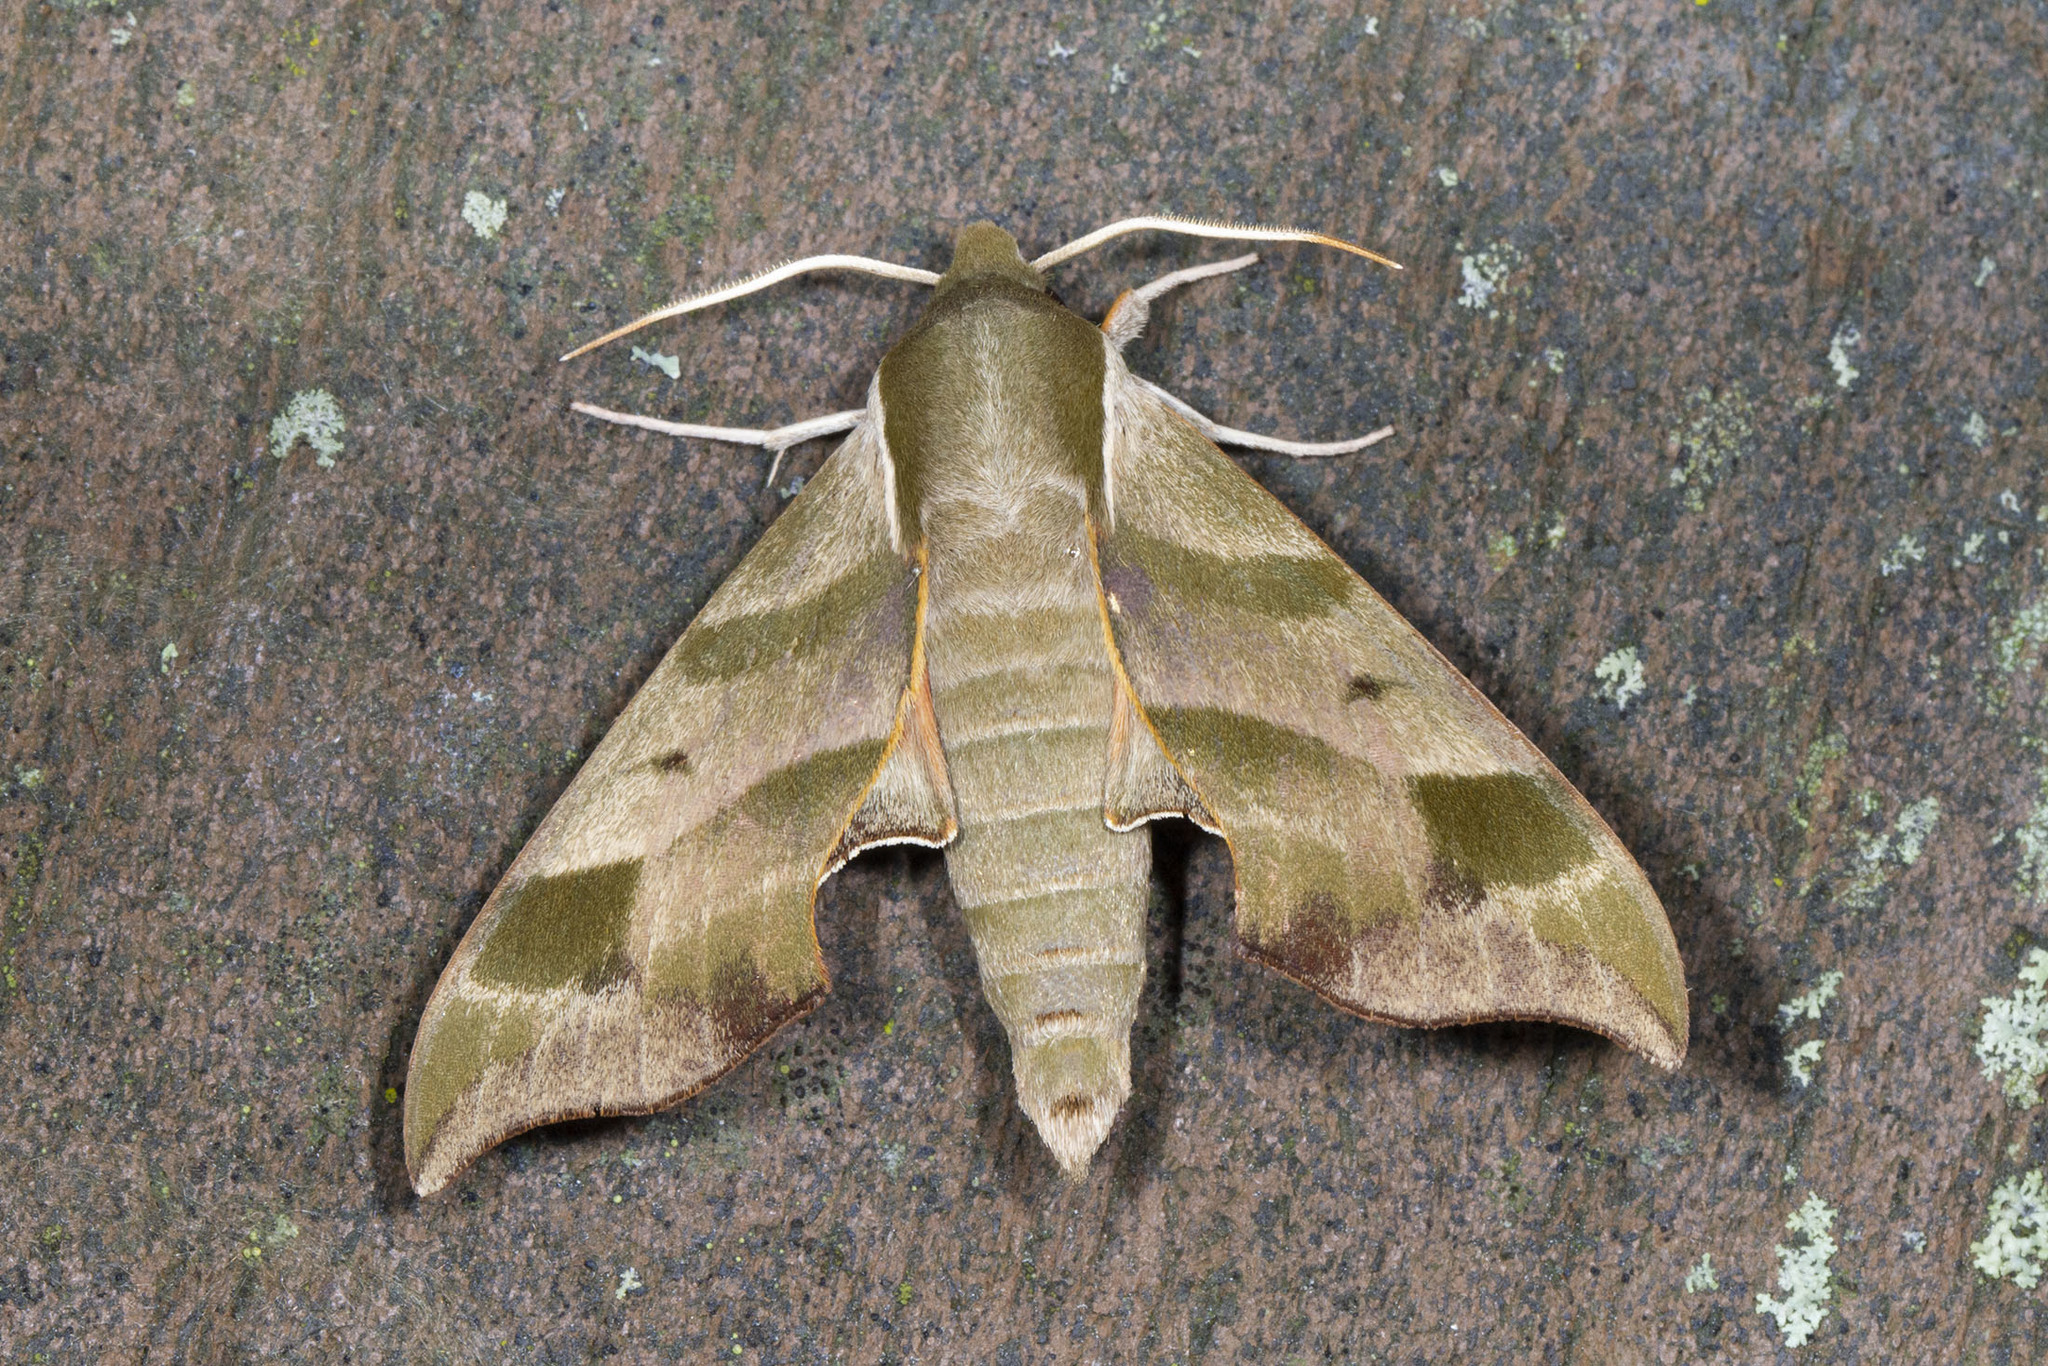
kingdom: Animalia
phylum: Arthropoda
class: Insecta
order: Lepidoptera
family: Sphingidae
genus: Darapsa
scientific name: Darapsa myron
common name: Hog sphinx
